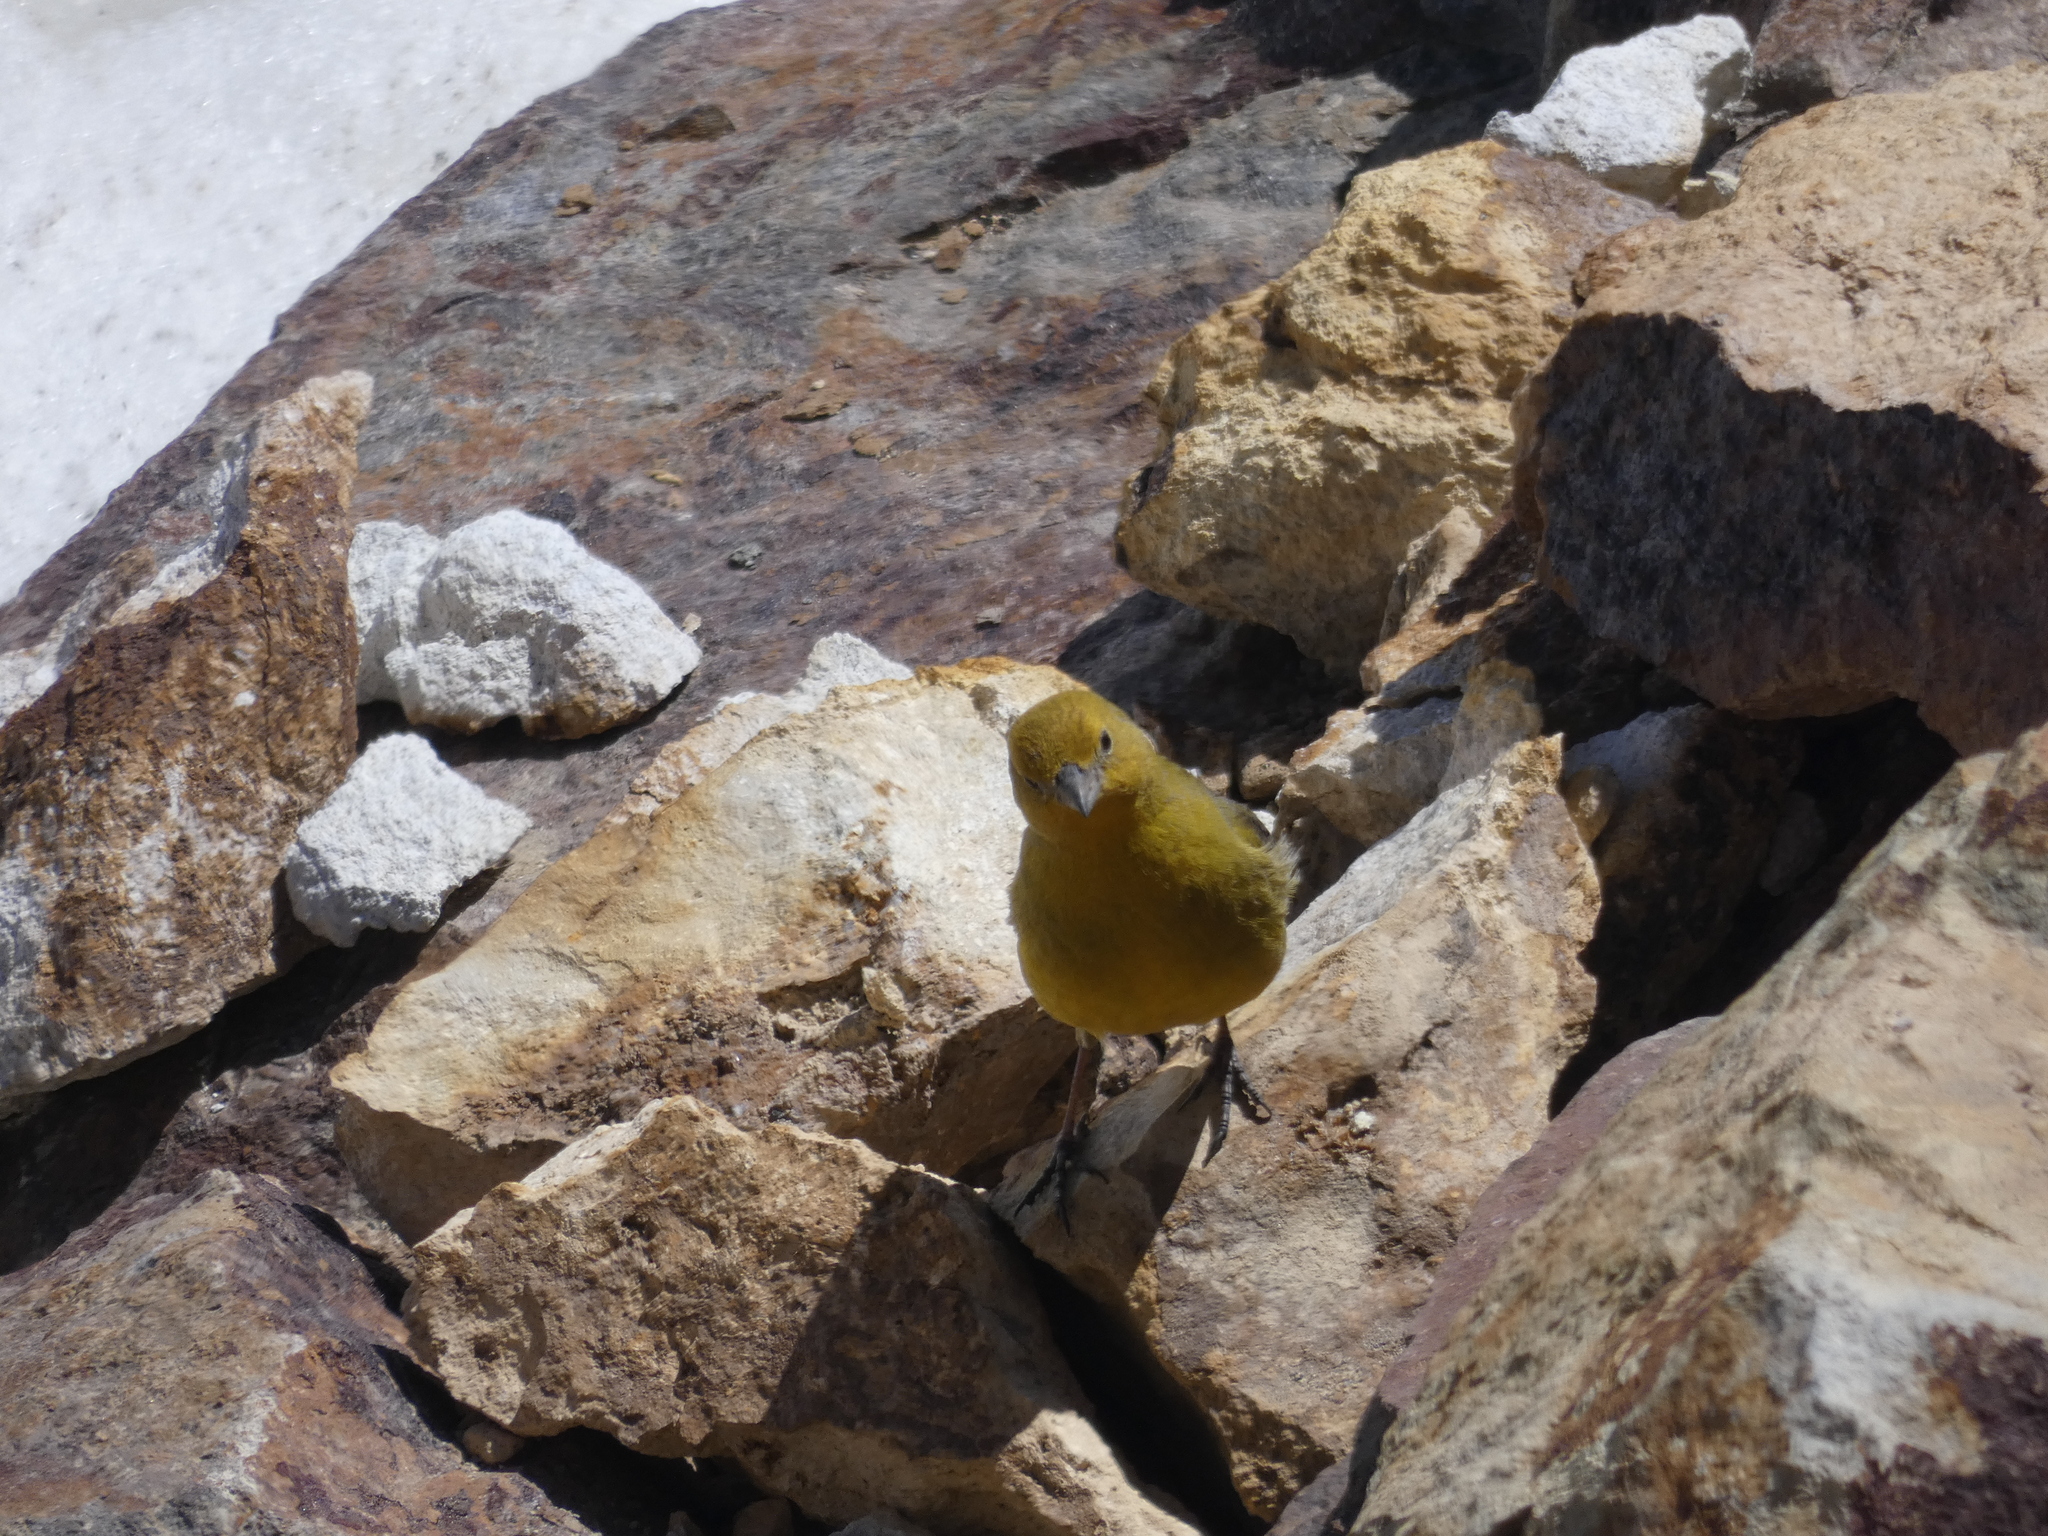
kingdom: Animalia
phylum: Chordata
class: Aves
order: Passeriformes
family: Thraupidae
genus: Sicalis
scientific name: Sicalis auriventris
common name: Greater yellow finch
